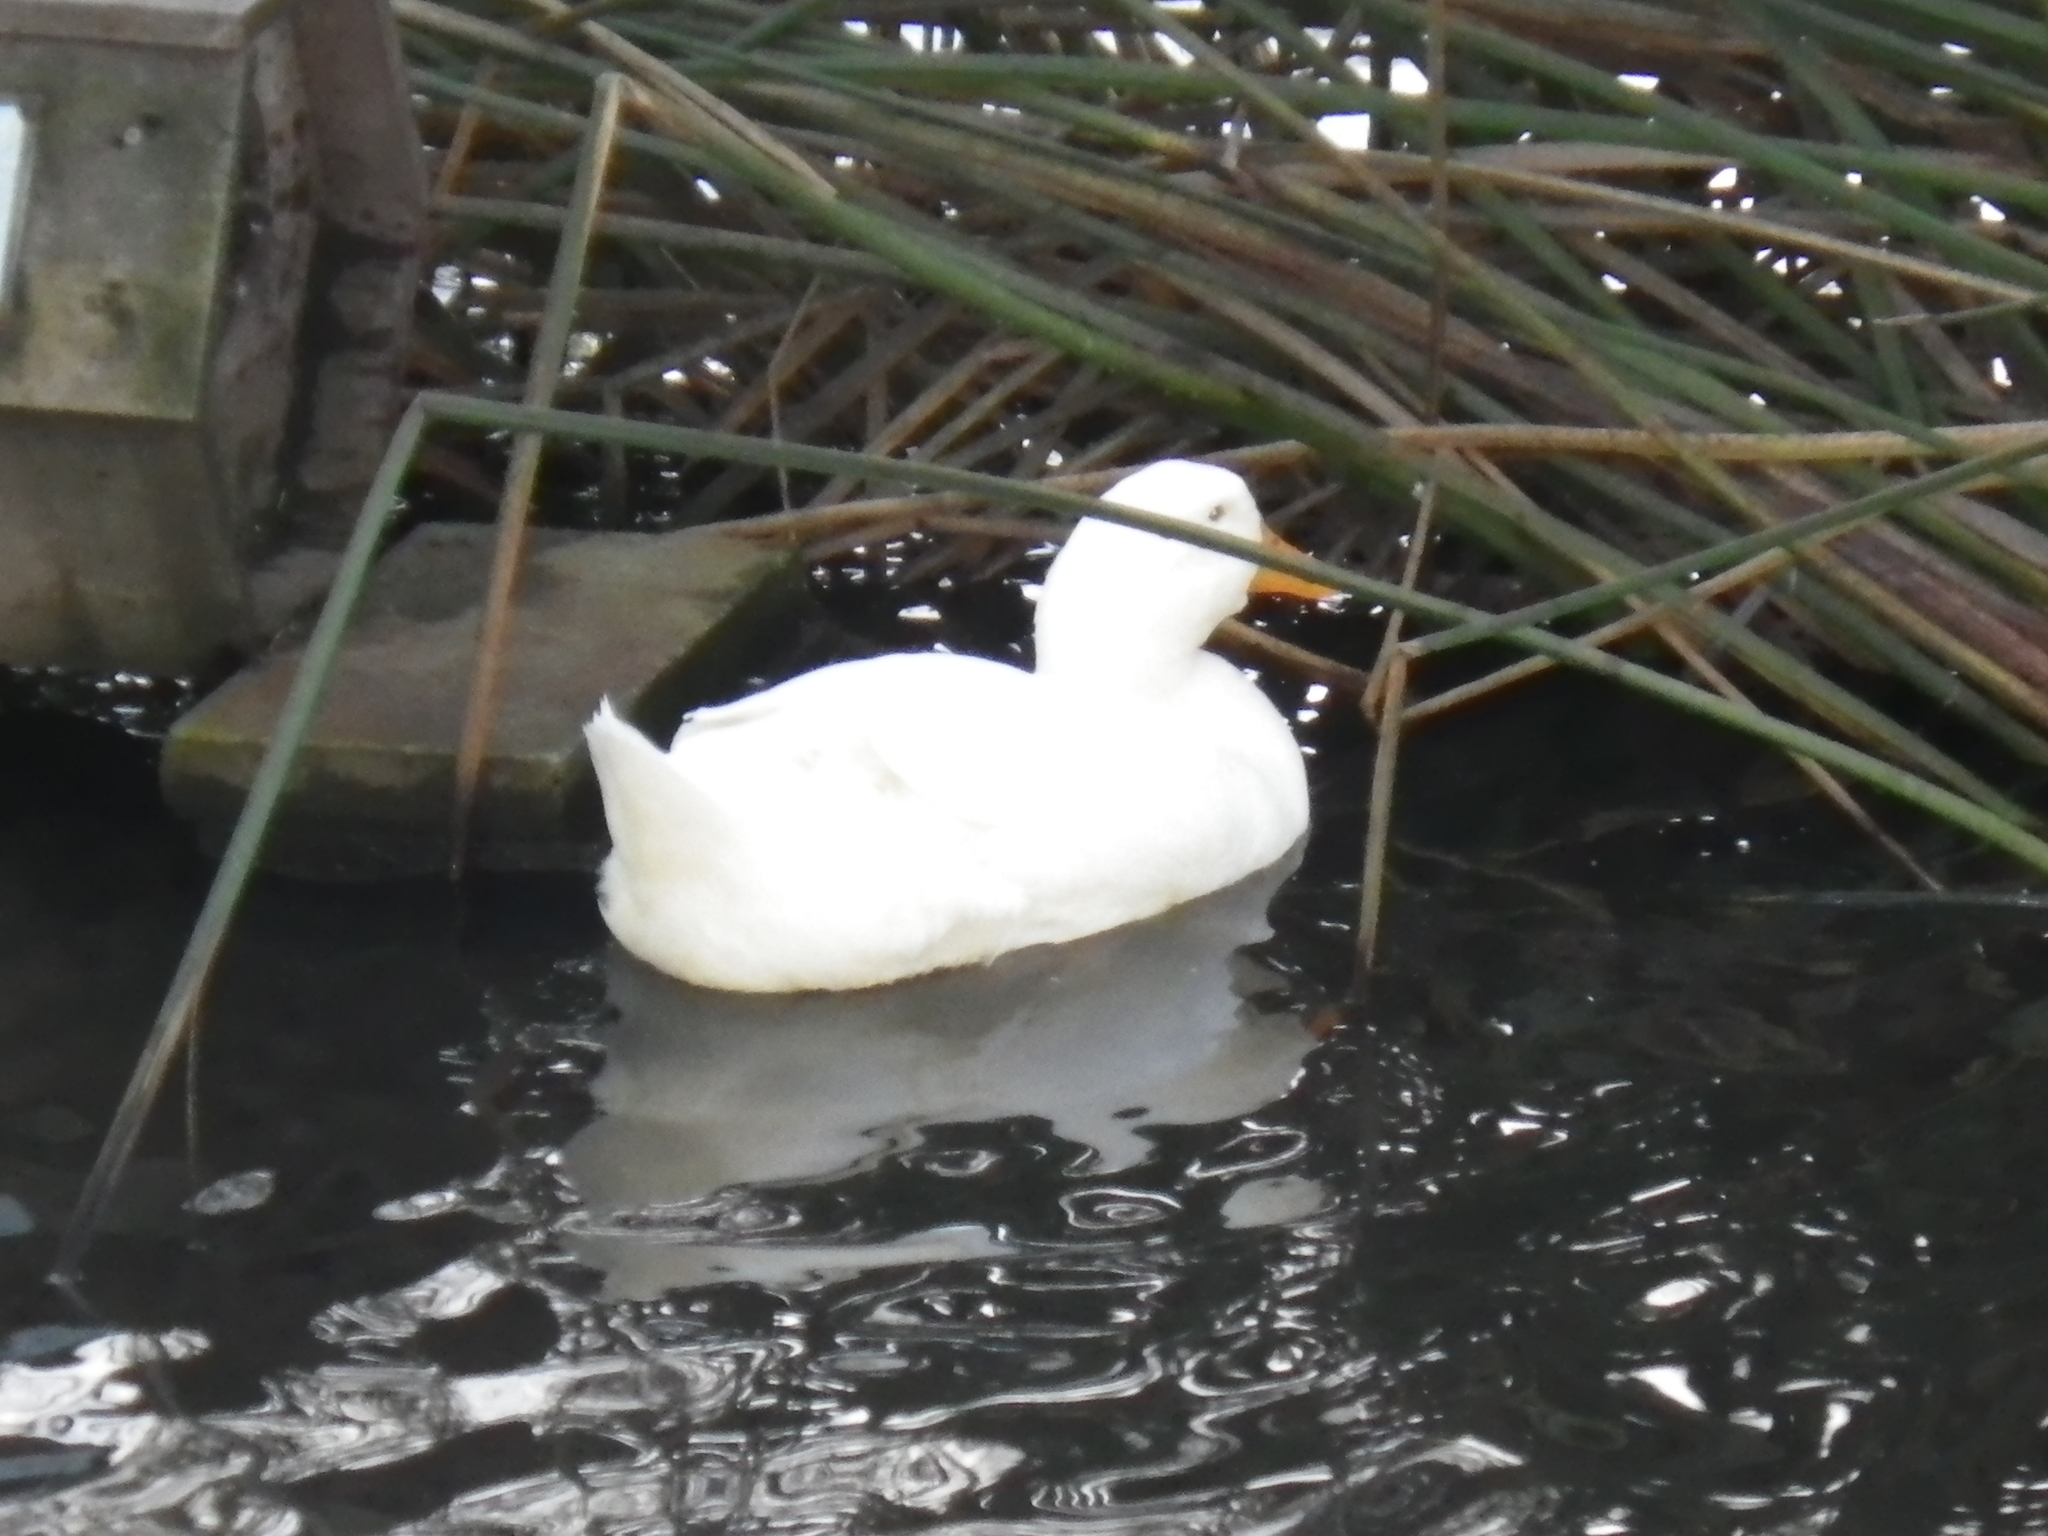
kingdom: Animalia
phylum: Chordata
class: Aves
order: Anseriformes
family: Anatidae
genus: Anas
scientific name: Anas platyrhynchos
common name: Mallard
